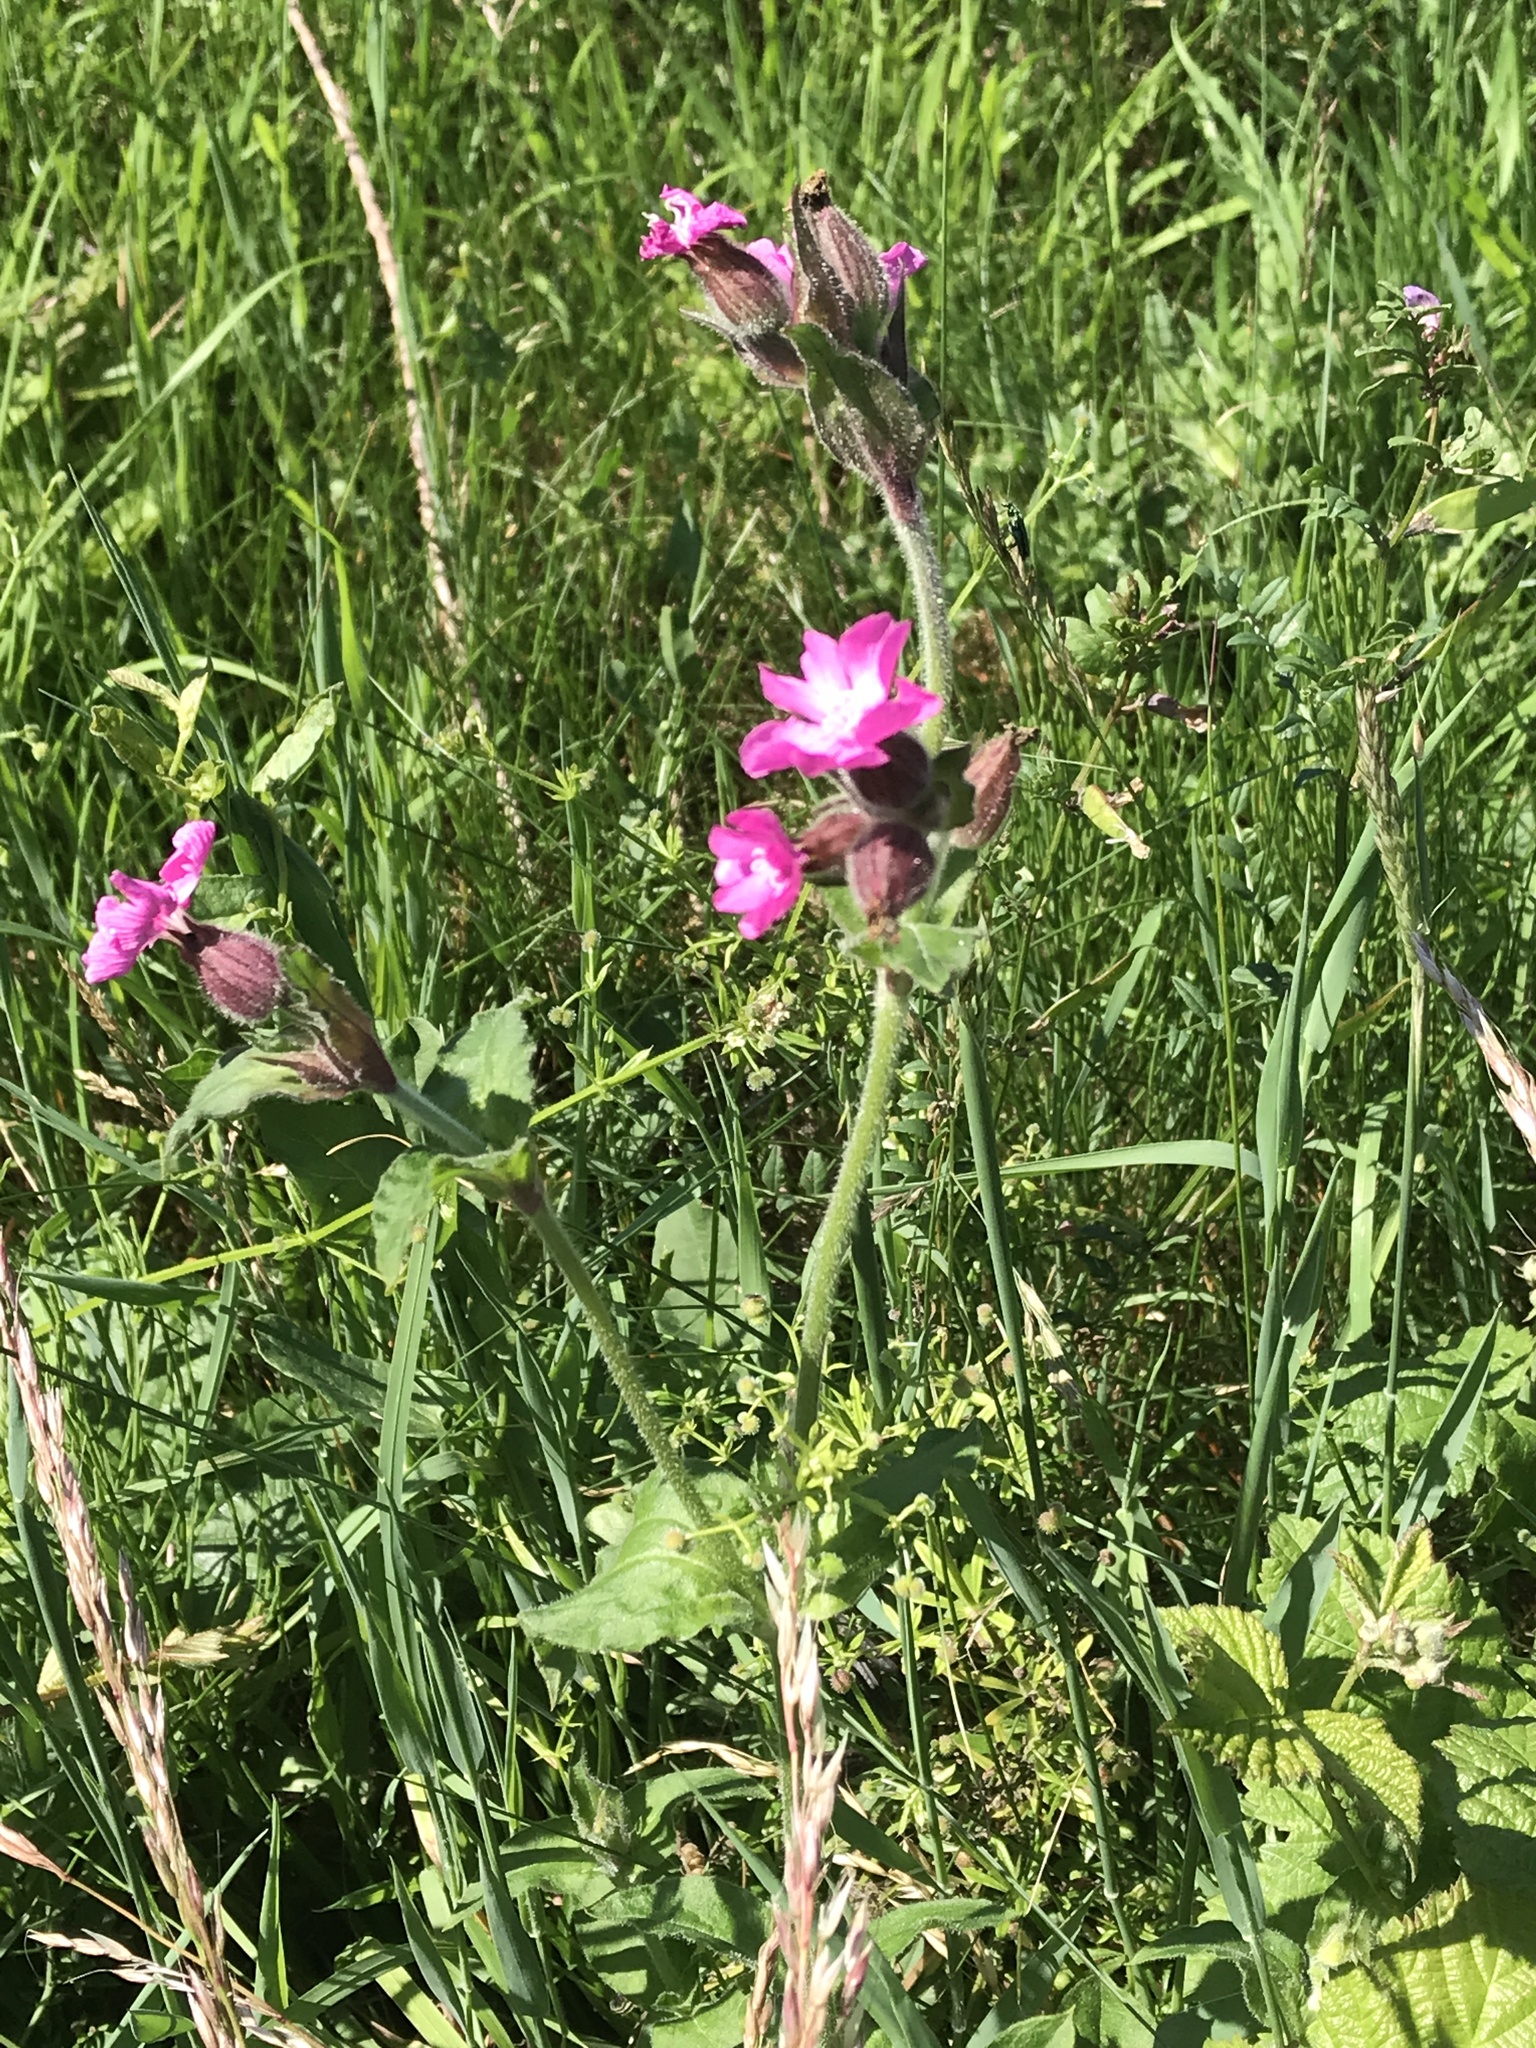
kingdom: Plantae
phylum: Tracheophyta
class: Magnoliopsida
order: Caryophyllales
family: Caryophyllaceae
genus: Silene
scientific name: Silene dioica
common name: Red campion
